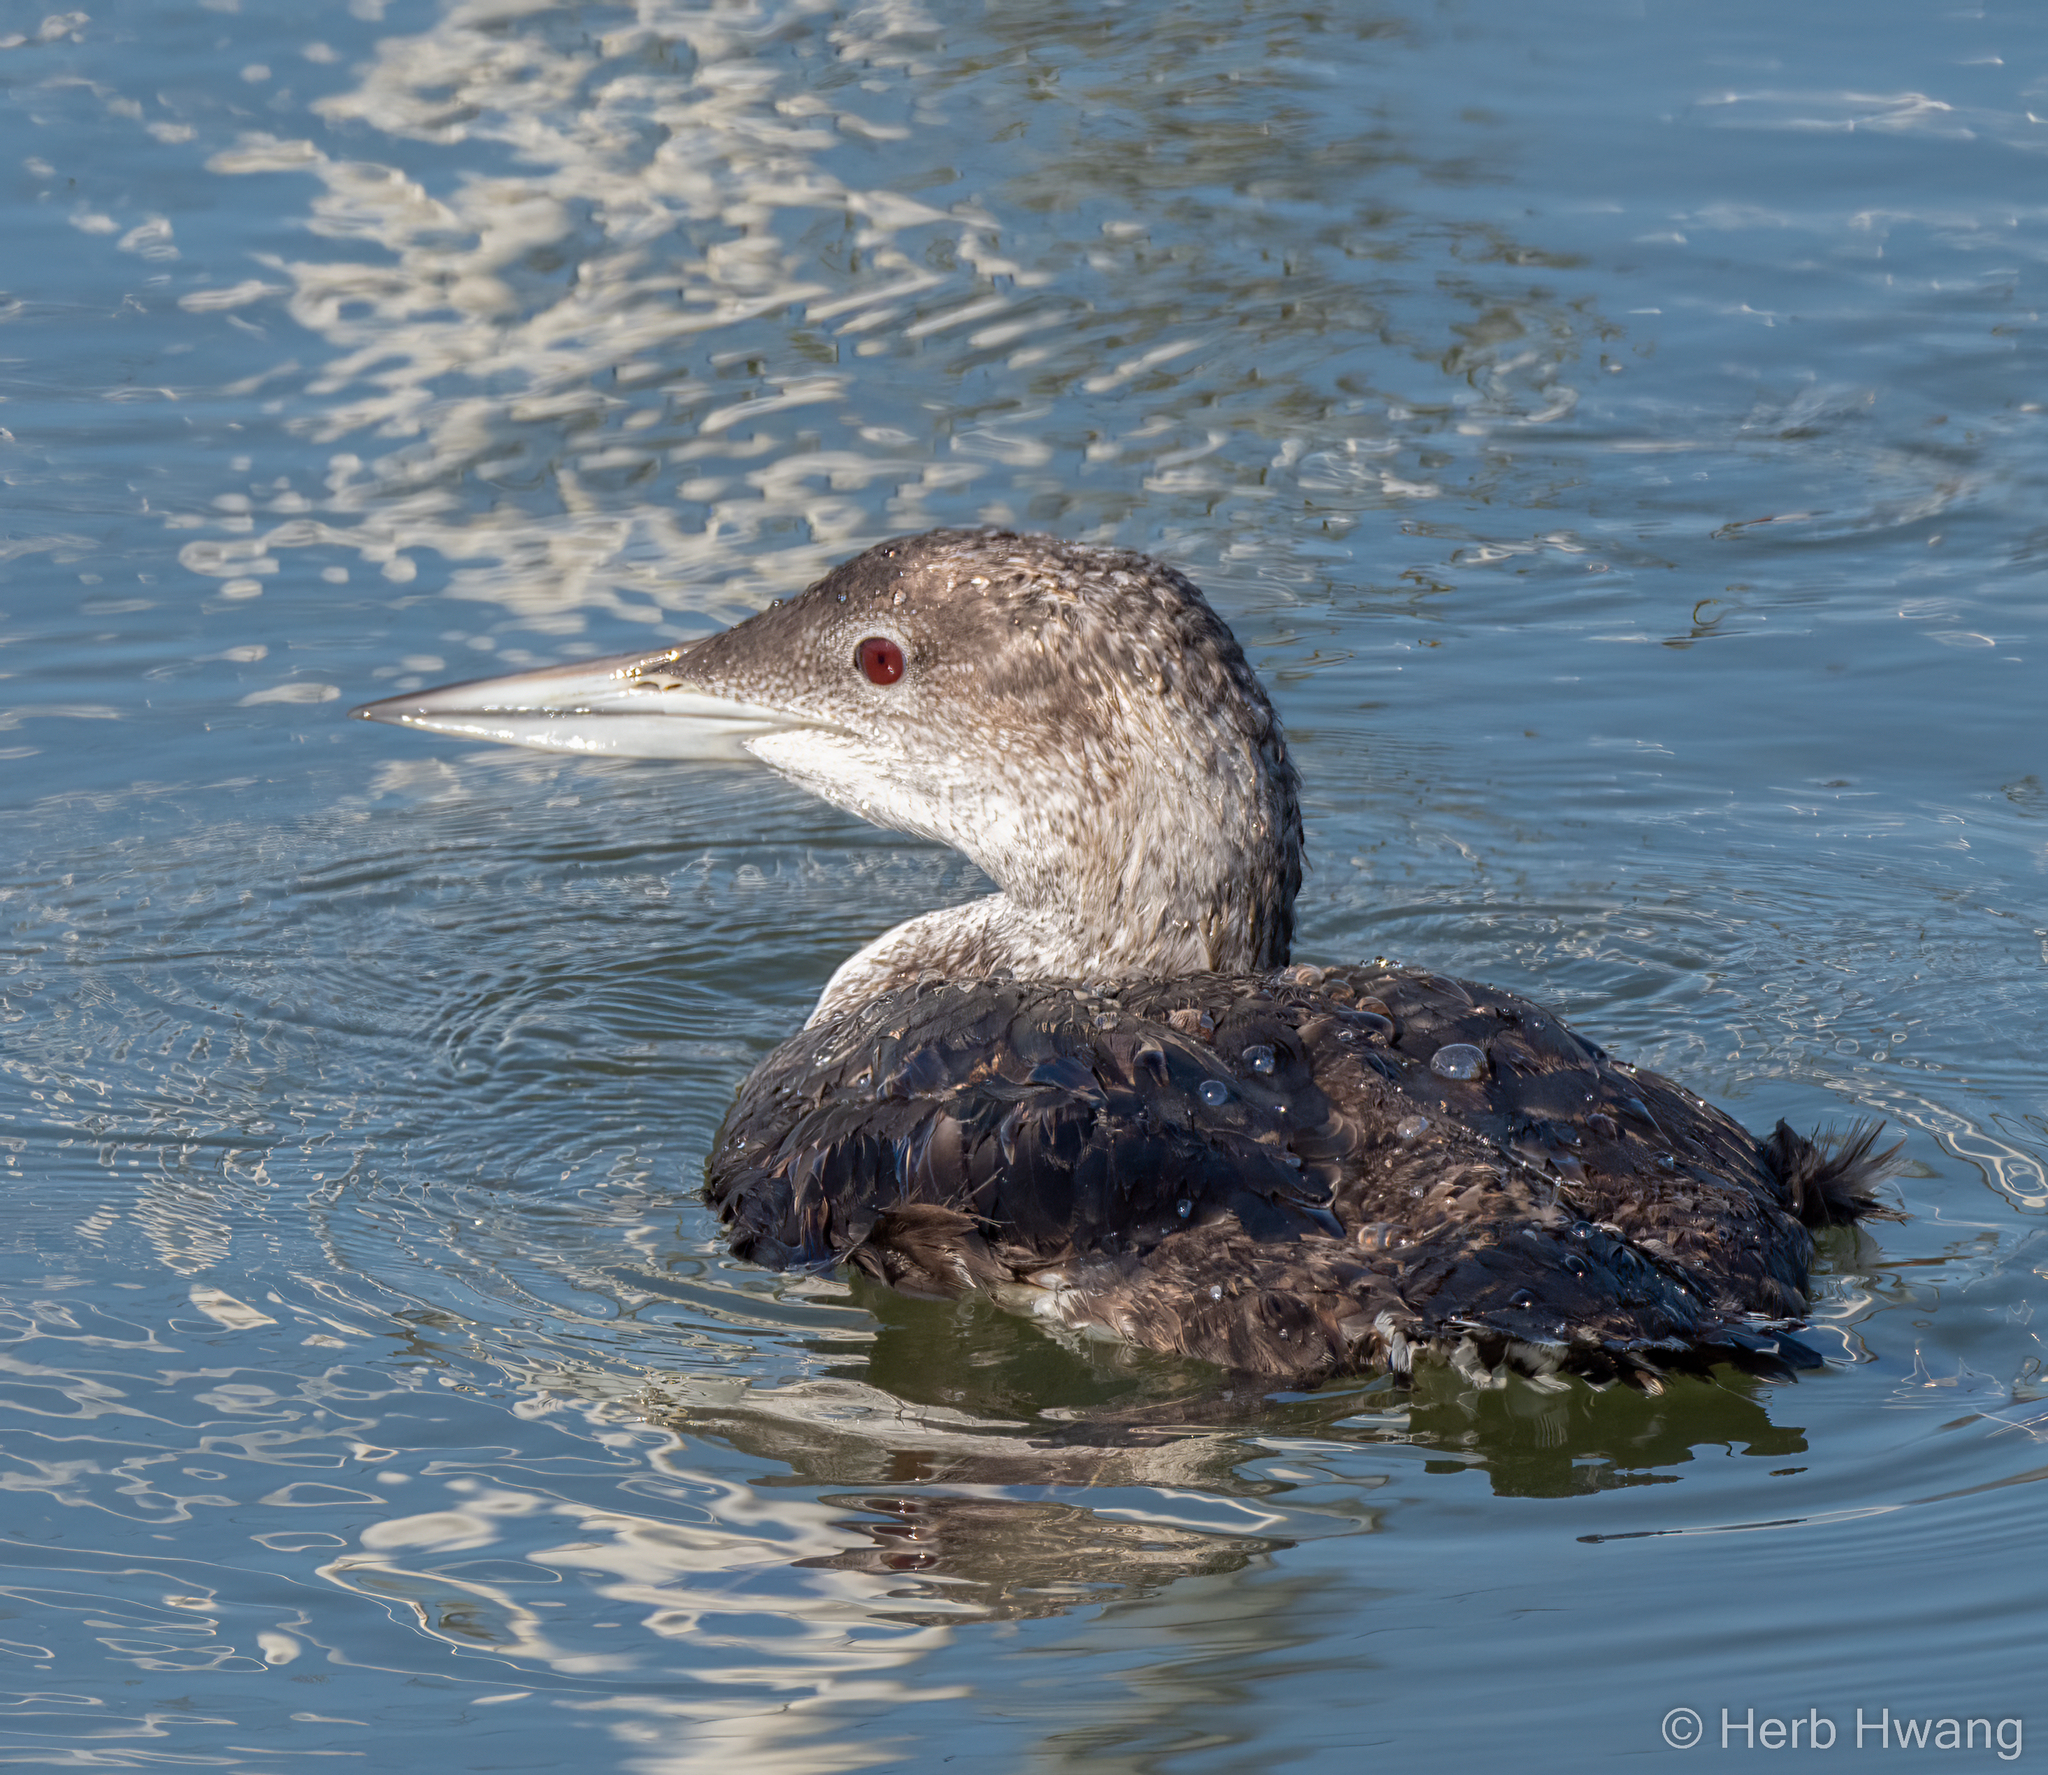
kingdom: Animalia
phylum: Chordata
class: Aves
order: Gaviiformes
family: Gaviidae
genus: Gavia
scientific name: Gavia immer
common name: Common loon
